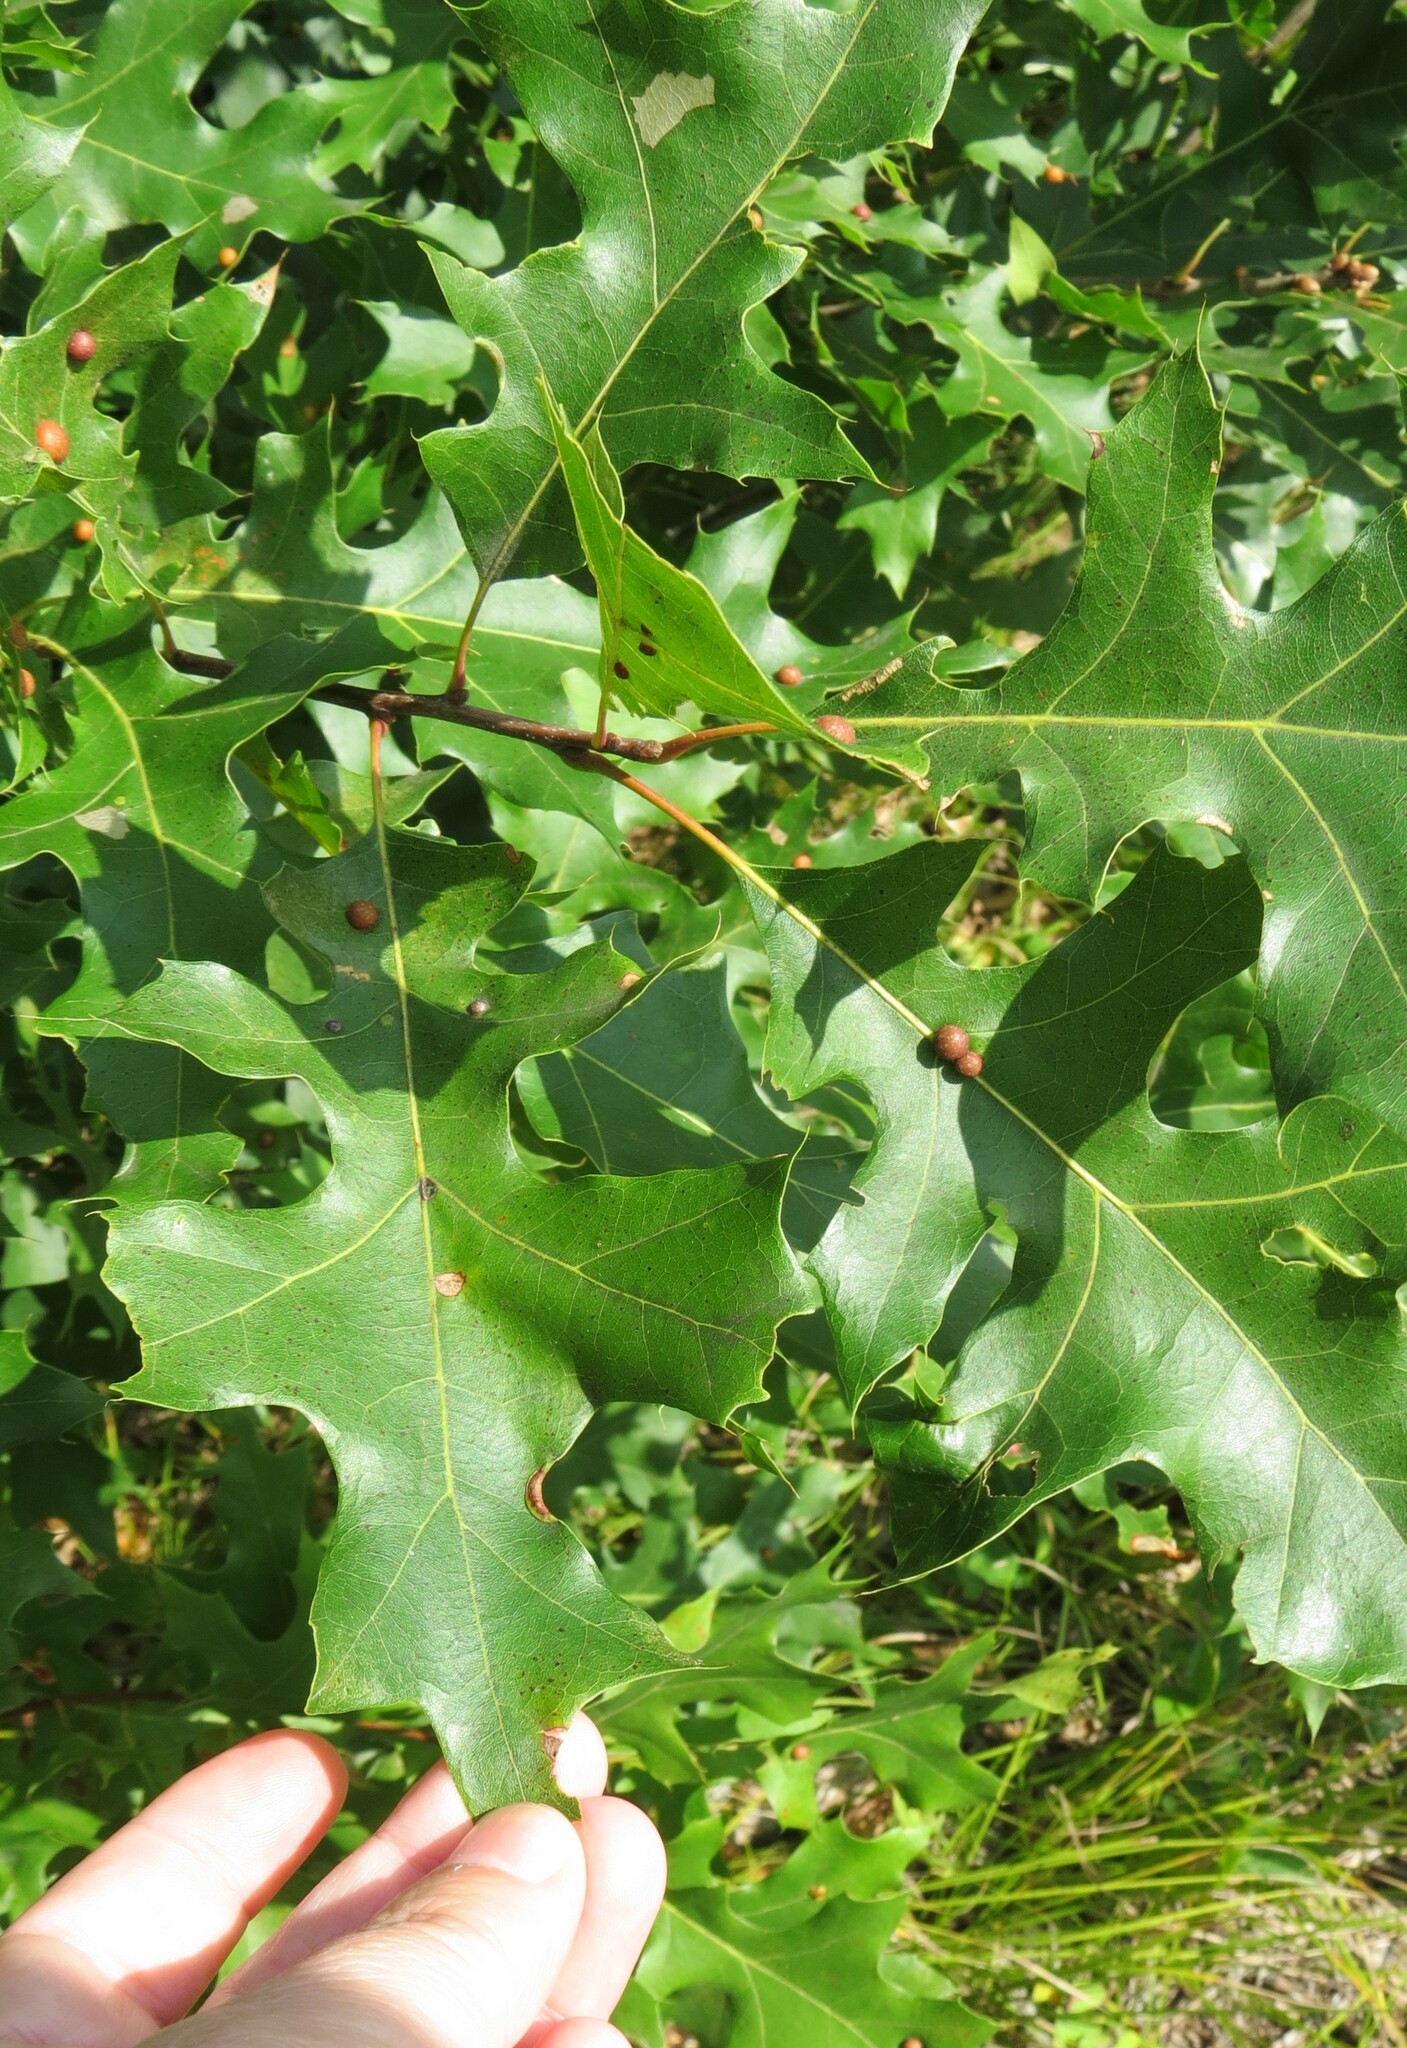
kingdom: Animalia
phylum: Arthropoda
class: Insecta
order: Diptera
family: Cecidomyiidae
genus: Polystepha
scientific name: Polystepha pilulae
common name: Oak leaf gall midge
